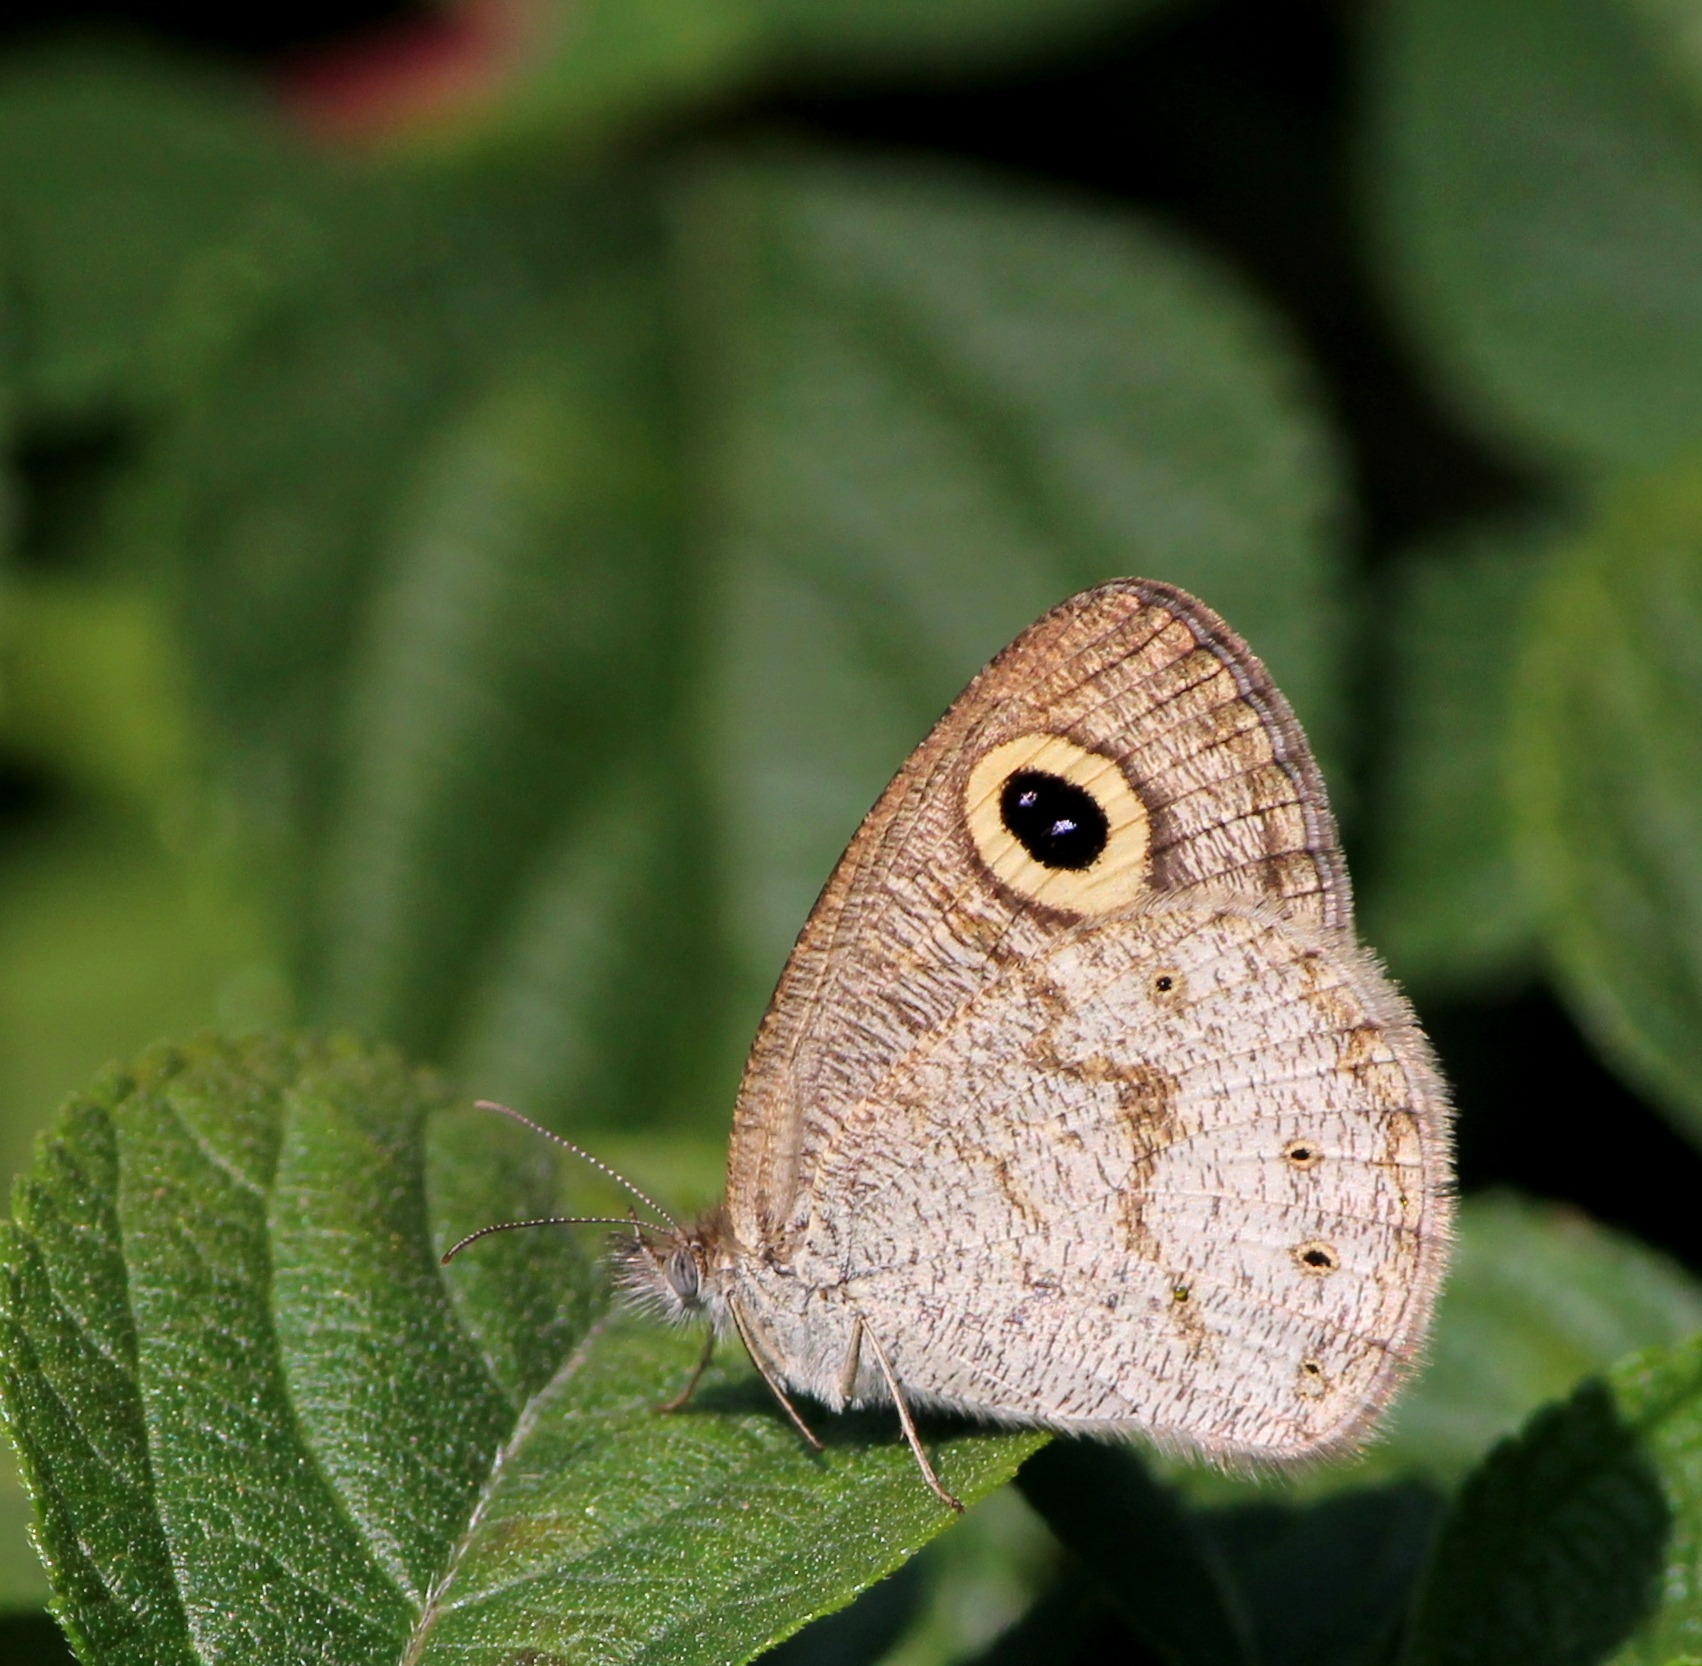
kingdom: Animalia
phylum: Arthropoda
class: Insecta
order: Lepidoptera
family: Nymphalidae
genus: Ypthima
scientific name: Ypthima huebneri
